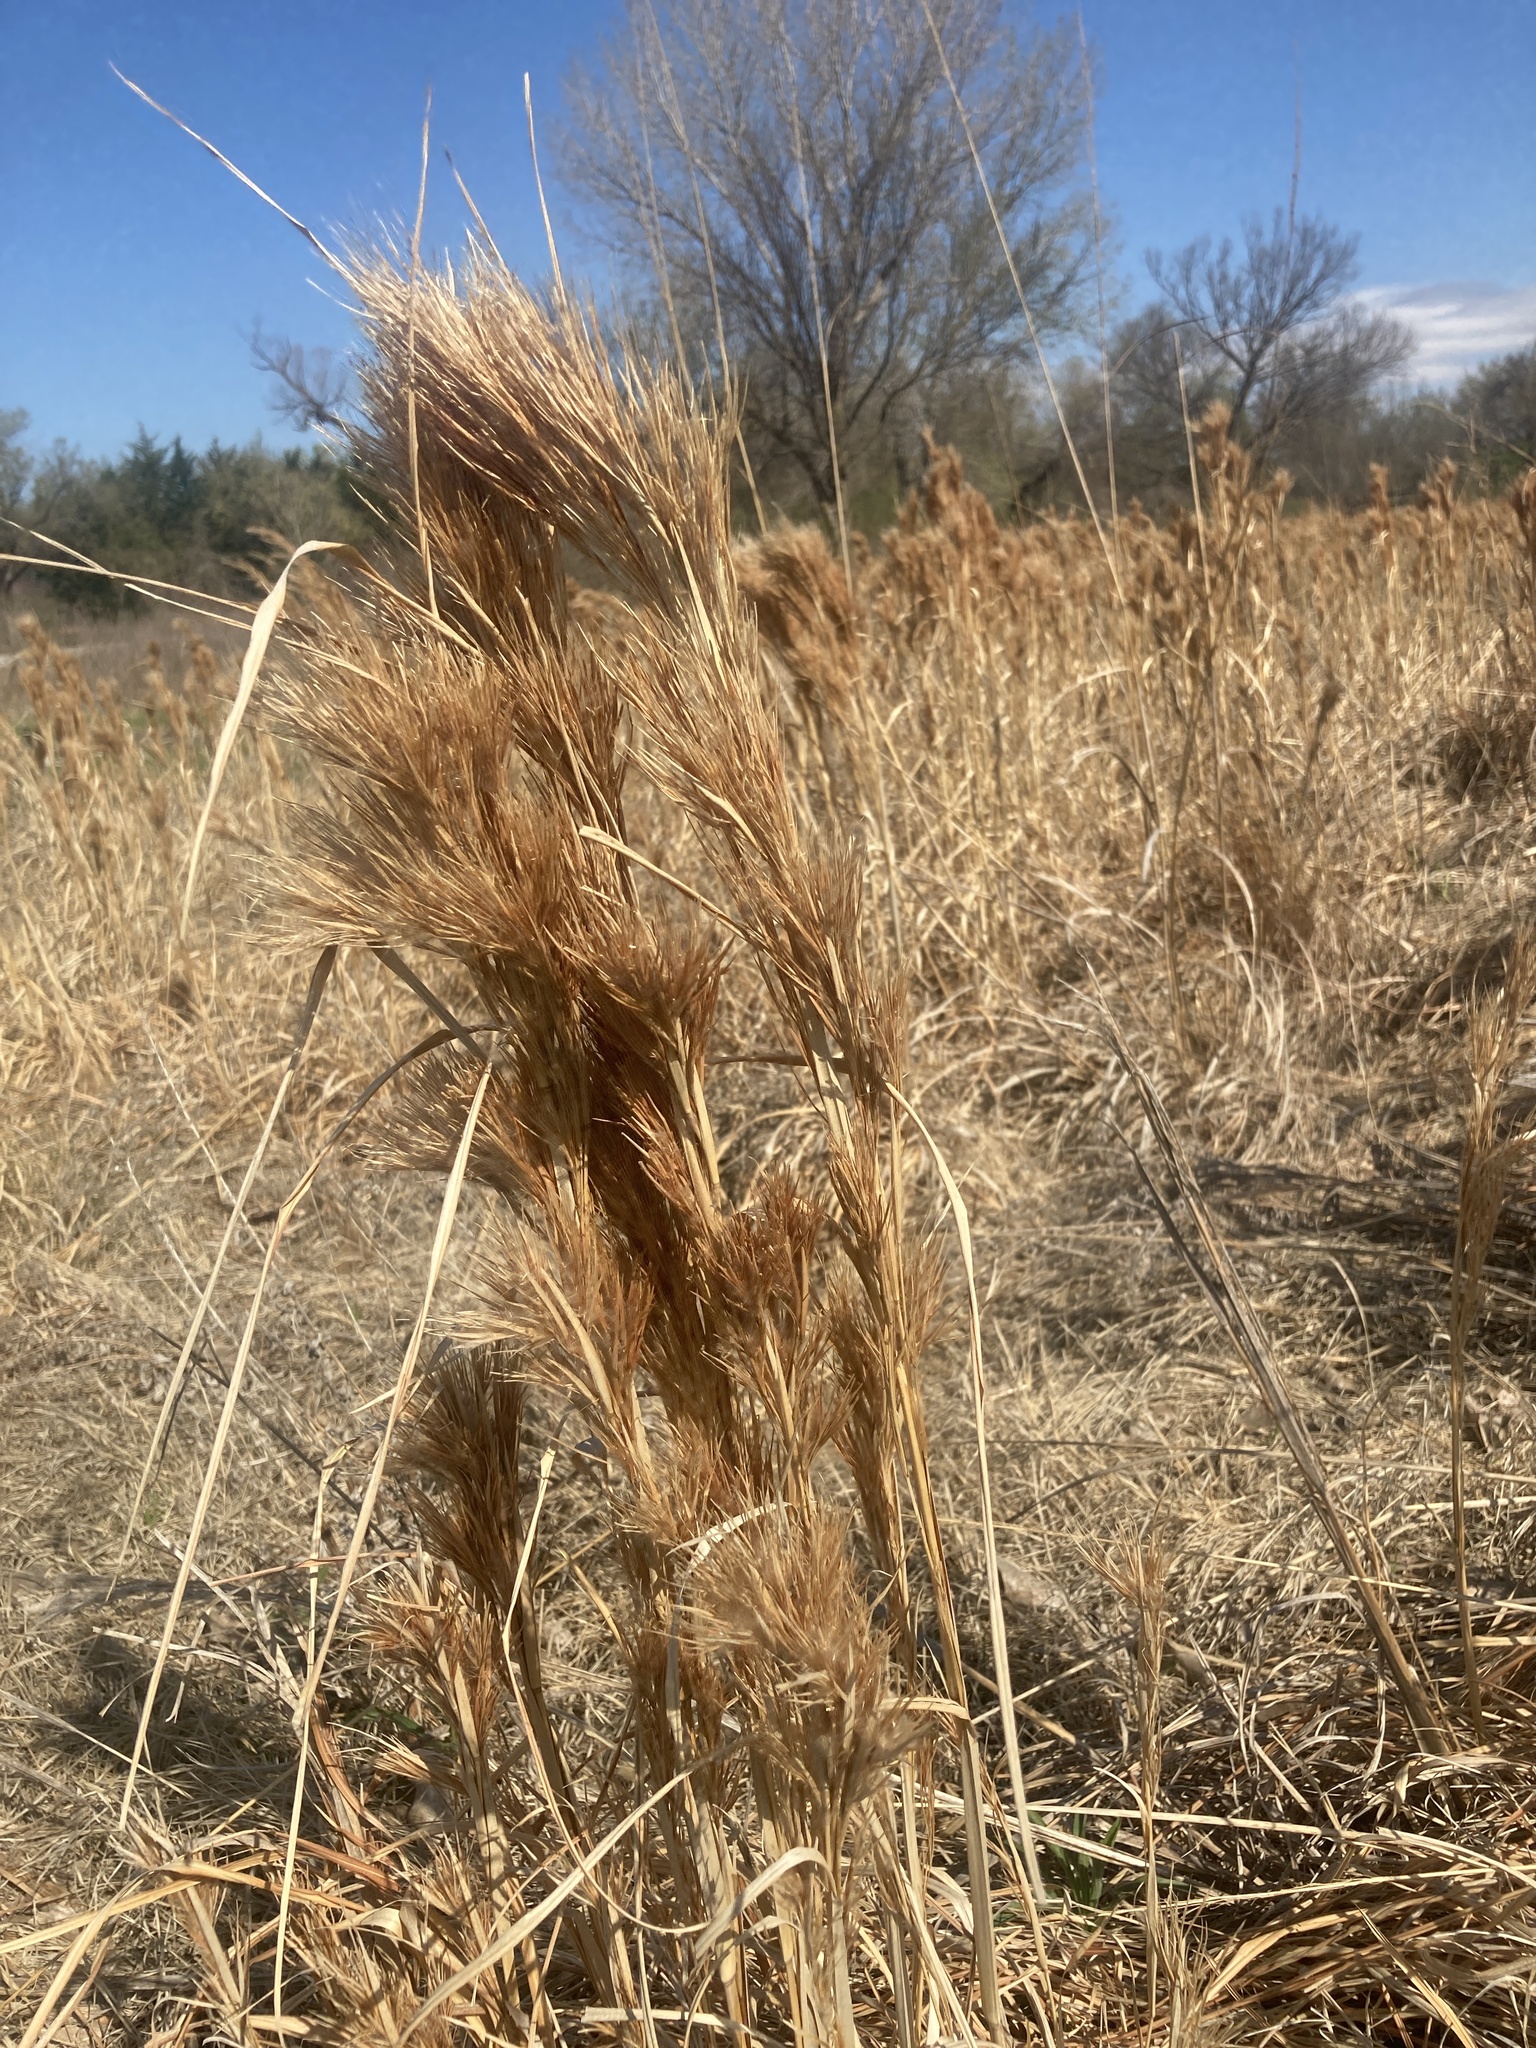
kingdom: Plantae
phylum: Tracheophyta
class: Liliopsida
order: Poales
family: Poaceae
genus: Andropogon
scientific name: Andropogon tenuispatheus
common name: Bushy bluestem
